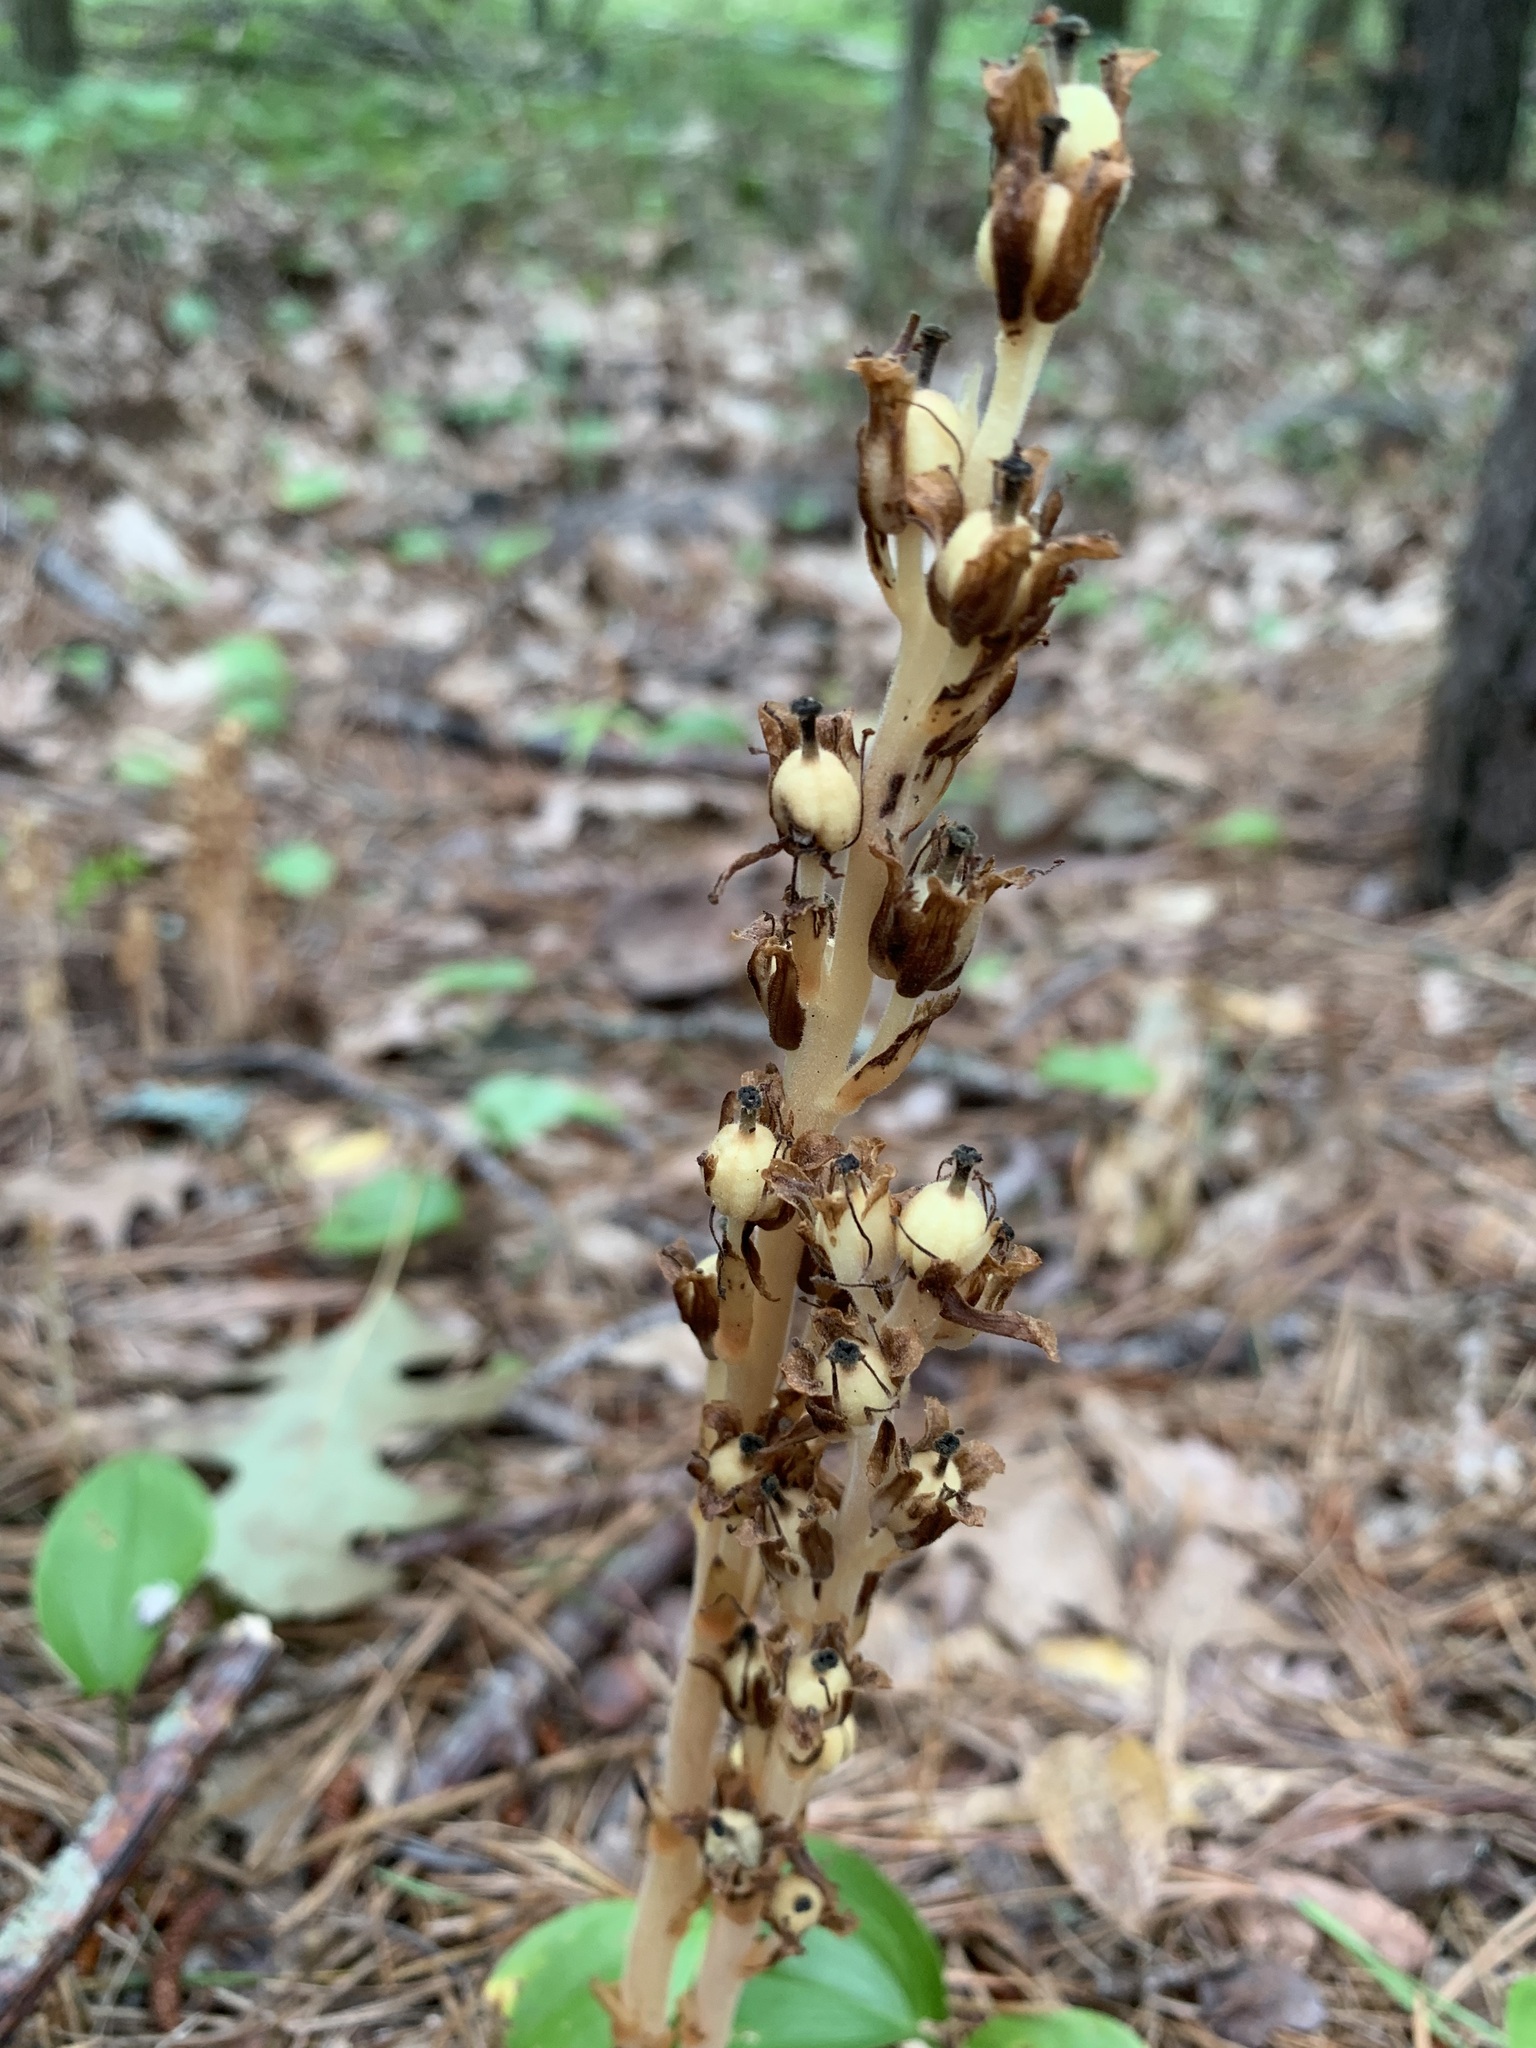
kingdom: Plantae
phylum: Tracheophyta
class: Magnoliopsida
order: Ericales
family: Ericaceae
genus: Hypopitys
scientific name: Hypopitys monotropa
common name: Yellow bird's-nest
